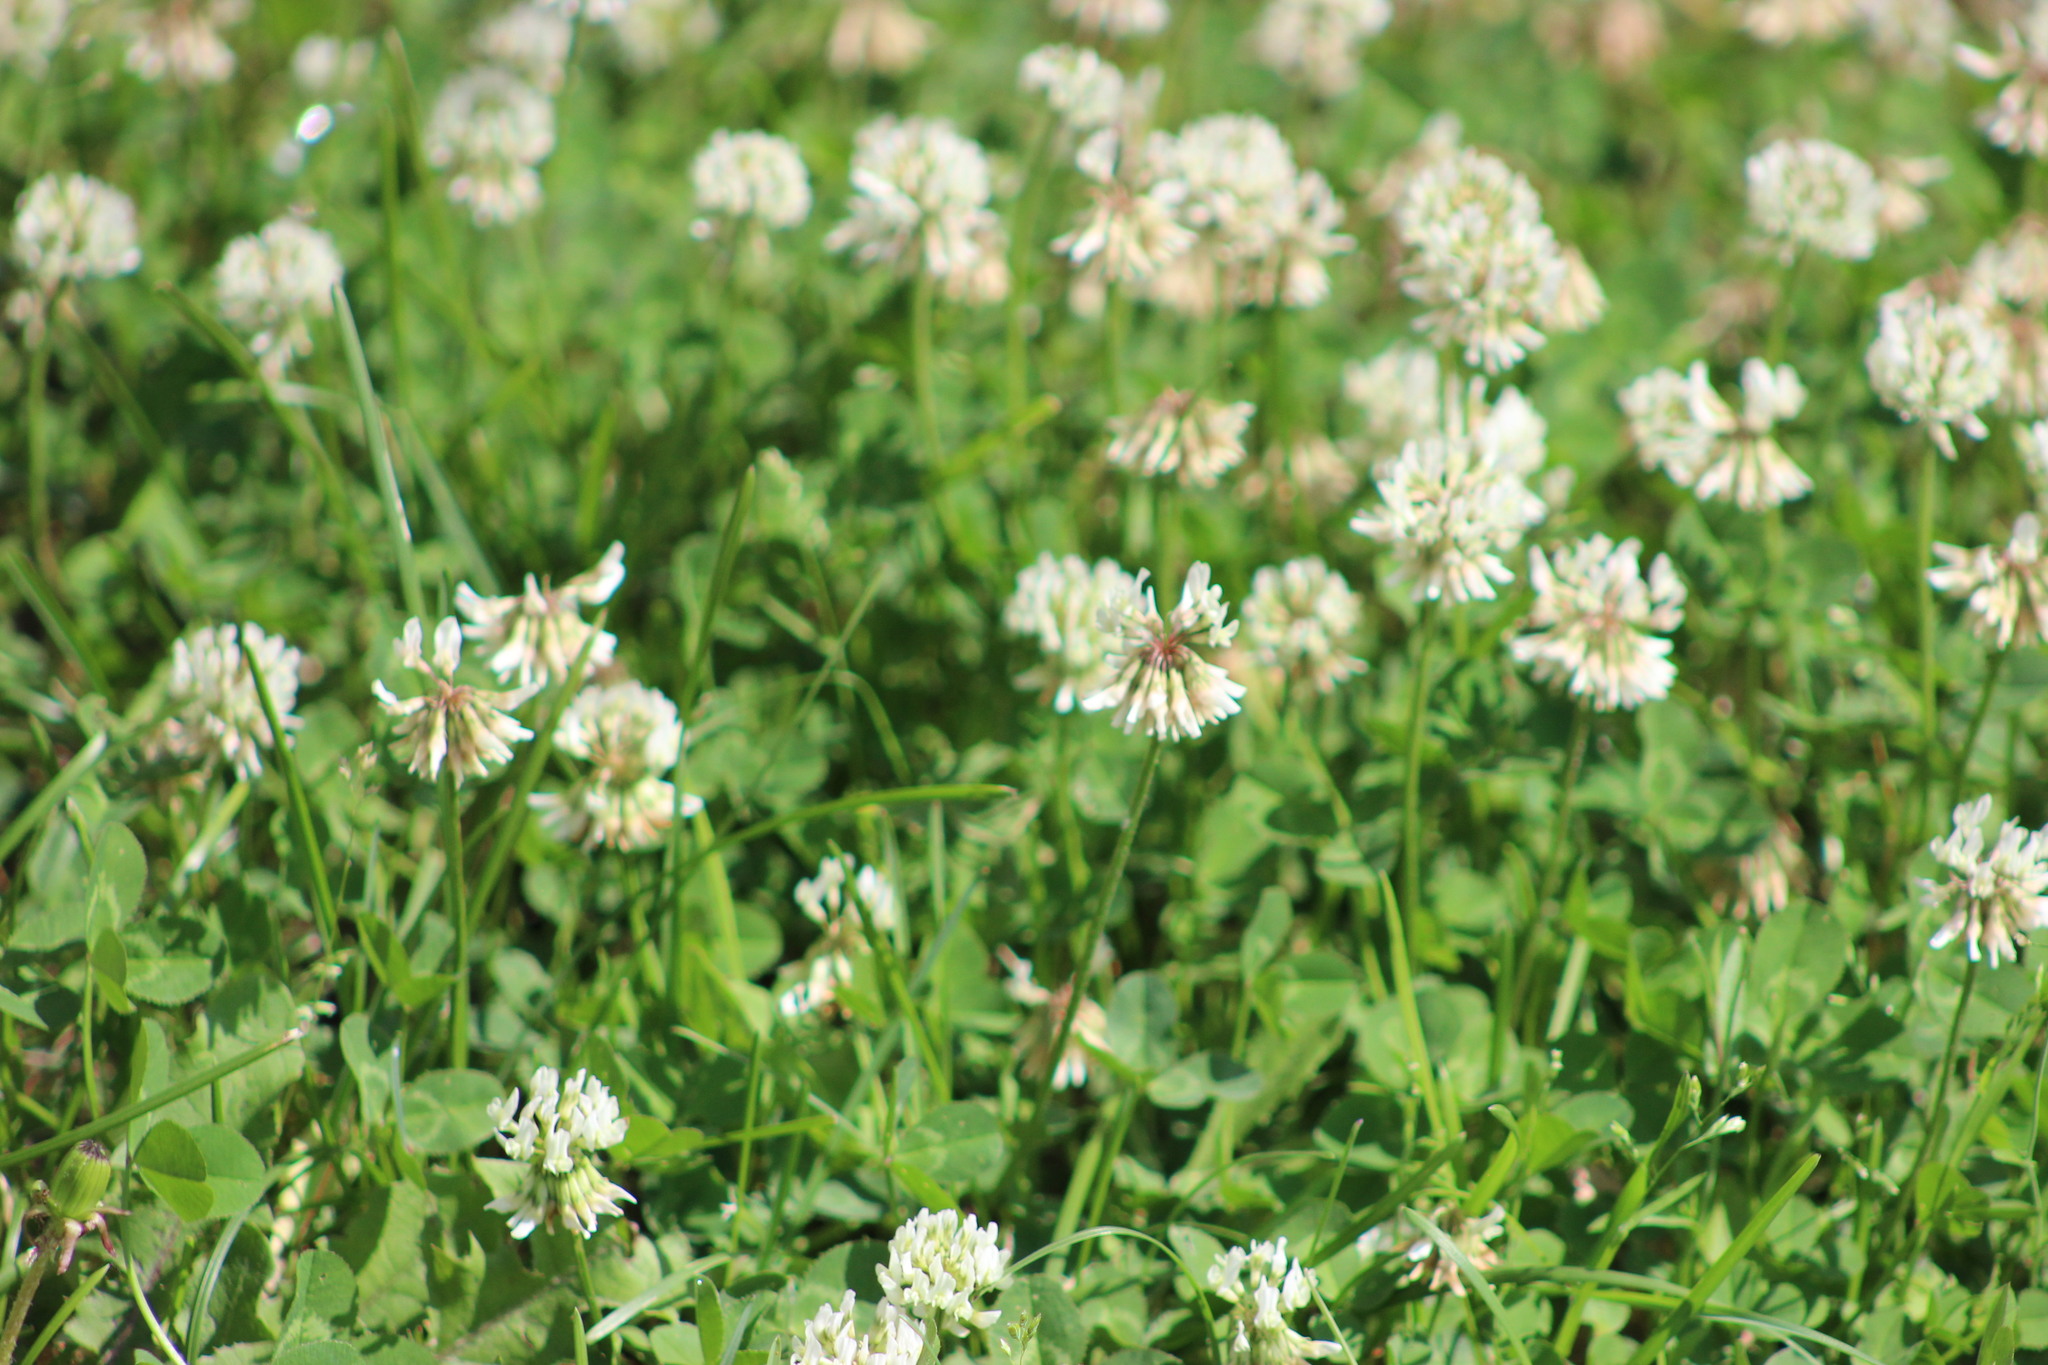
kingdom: Plantae
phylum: Tracheophyta
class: Magnoliopsida
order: Fabales
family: Fabaceae
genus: Trifolium
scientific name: Trifolium repens
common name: White clover
